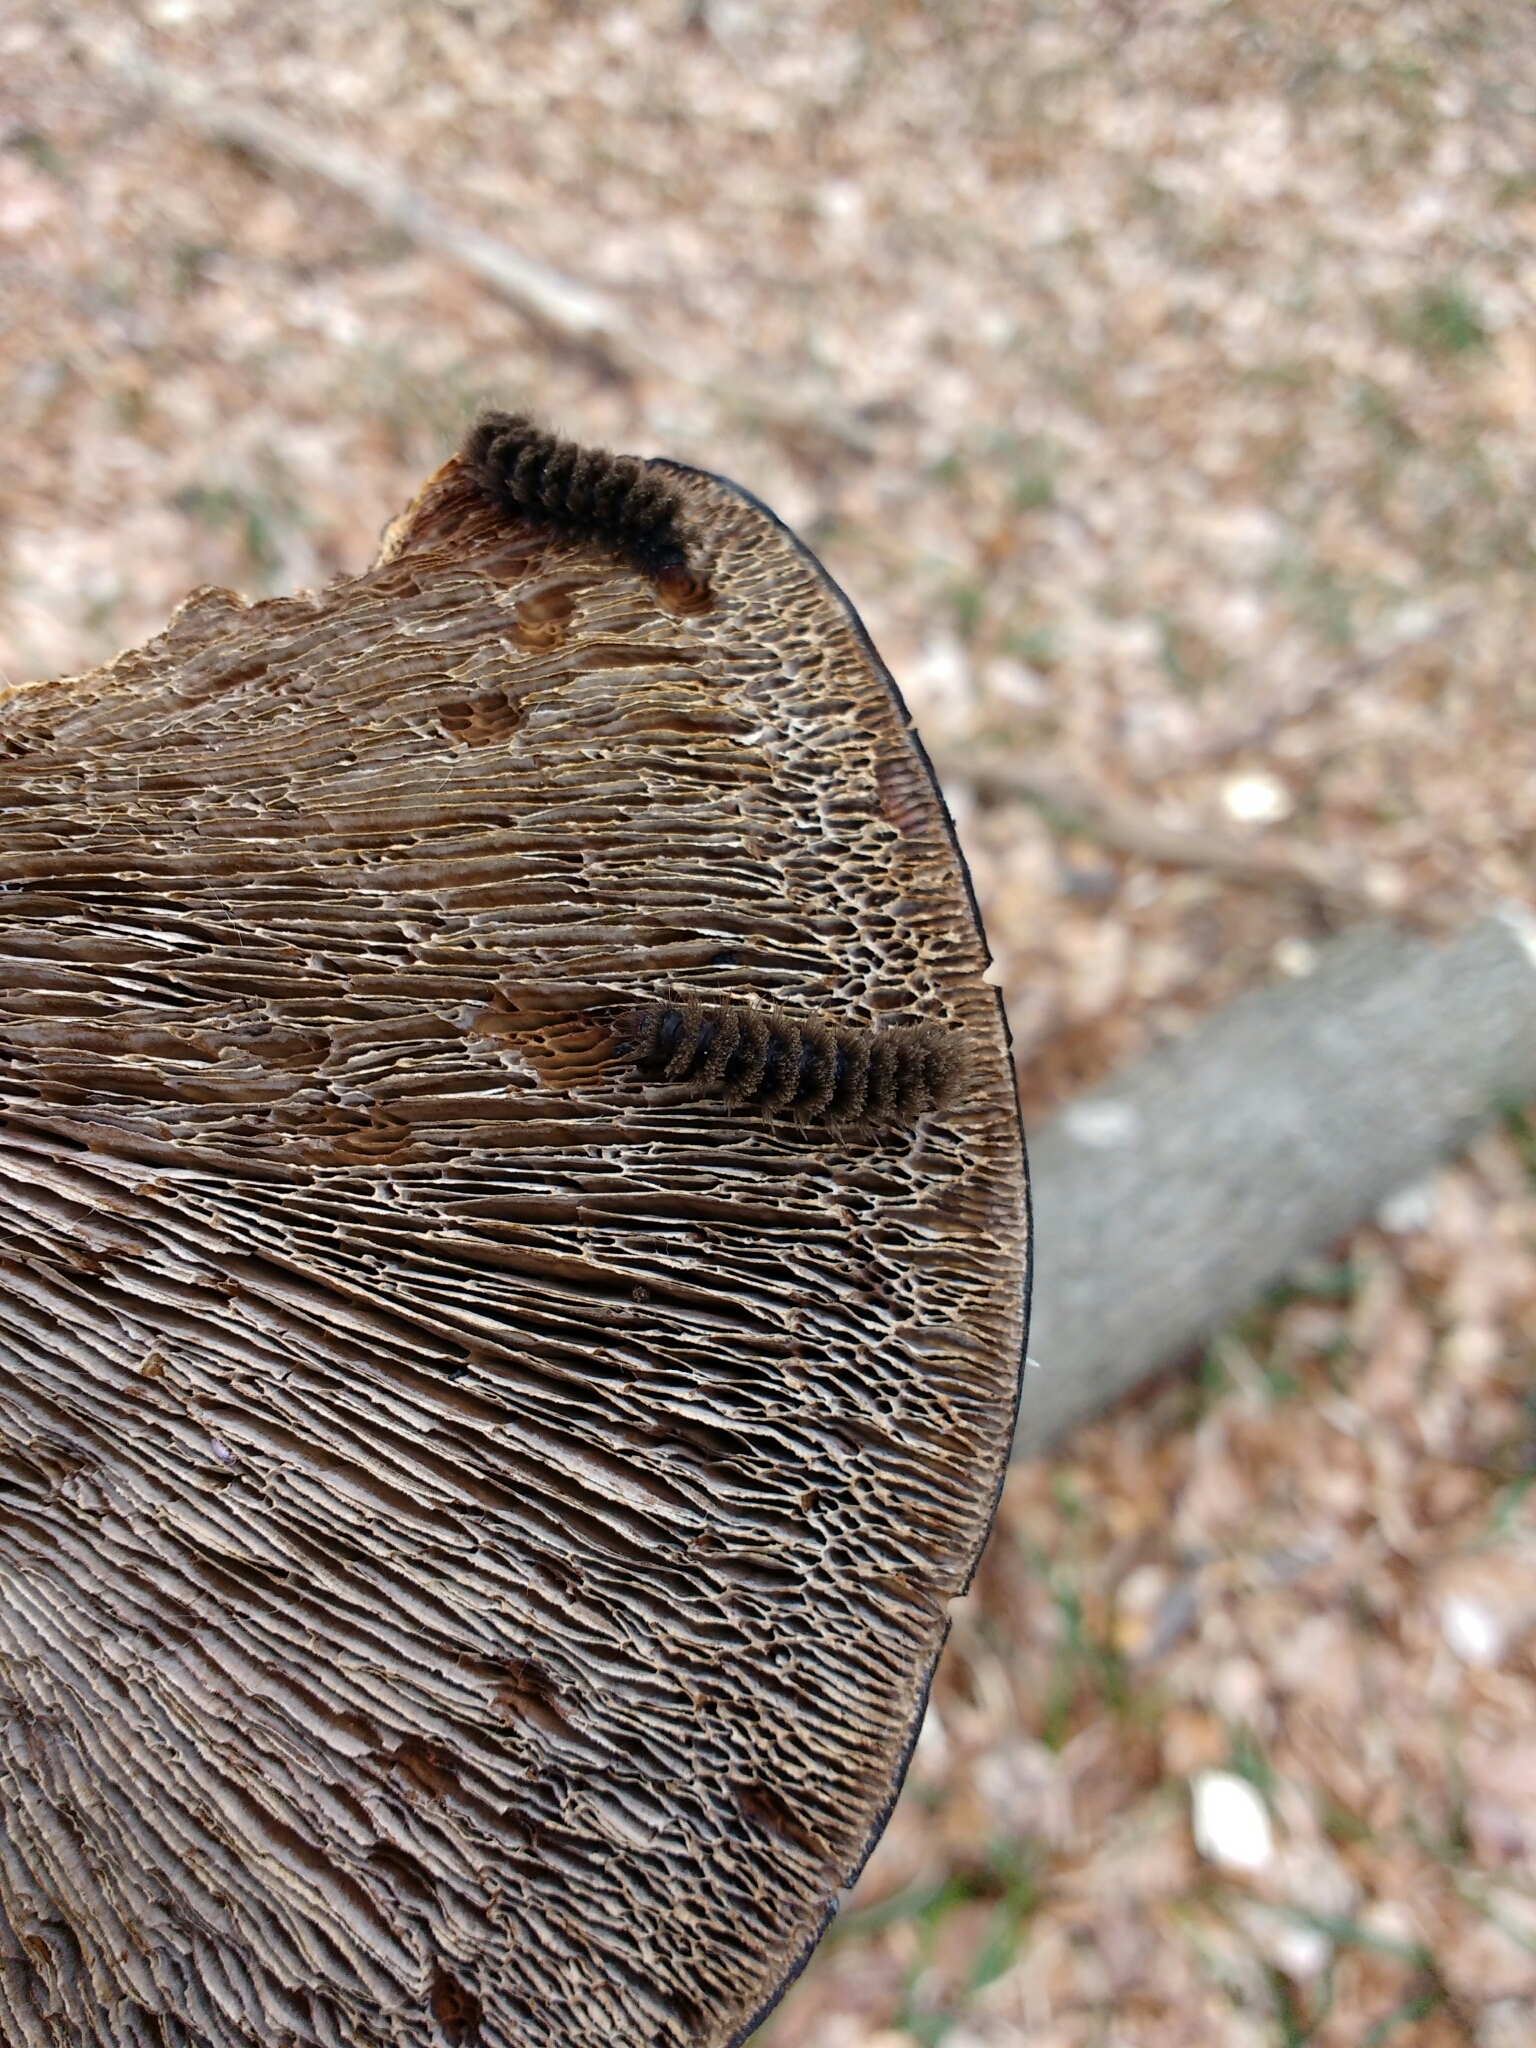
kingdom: Animalia
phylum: Arthropoda
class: Insecta
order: Lepidoptera
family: Erebidae
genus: Amata
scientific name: Amata phegea
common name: Nine-spotted
